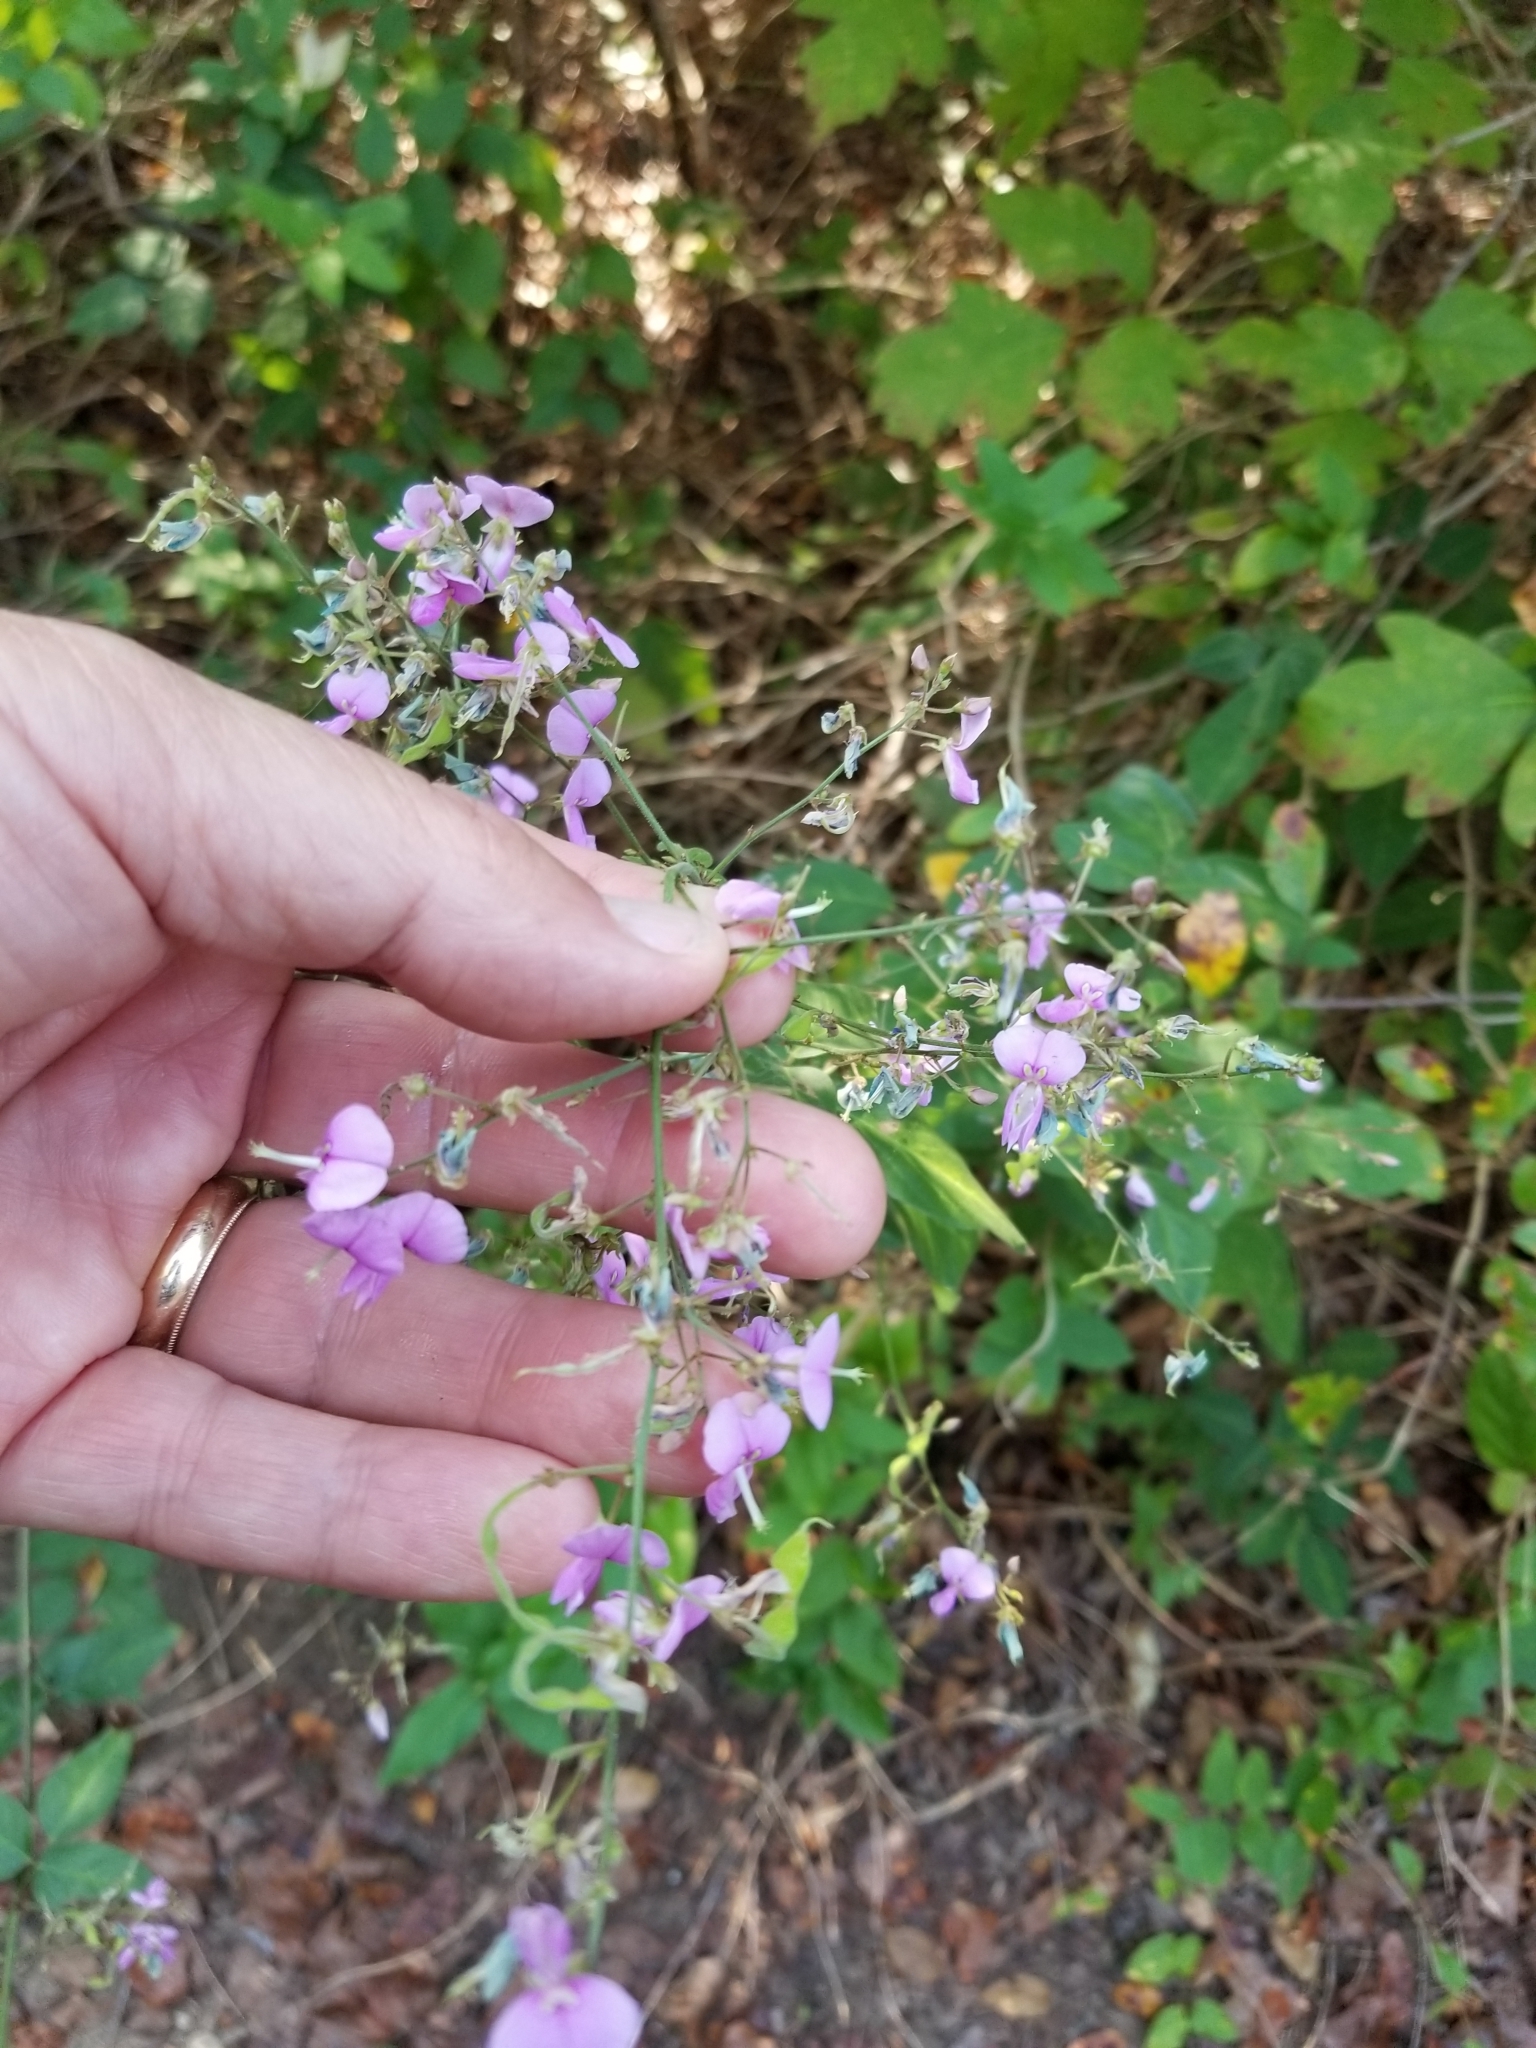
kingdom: Plantae
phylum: Tracheophyta
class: Magnoliopsida
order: Fabales
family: Fabaceae
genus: Desmodium
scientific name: Desmodium paniculatum
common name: Panicled tick-clover
